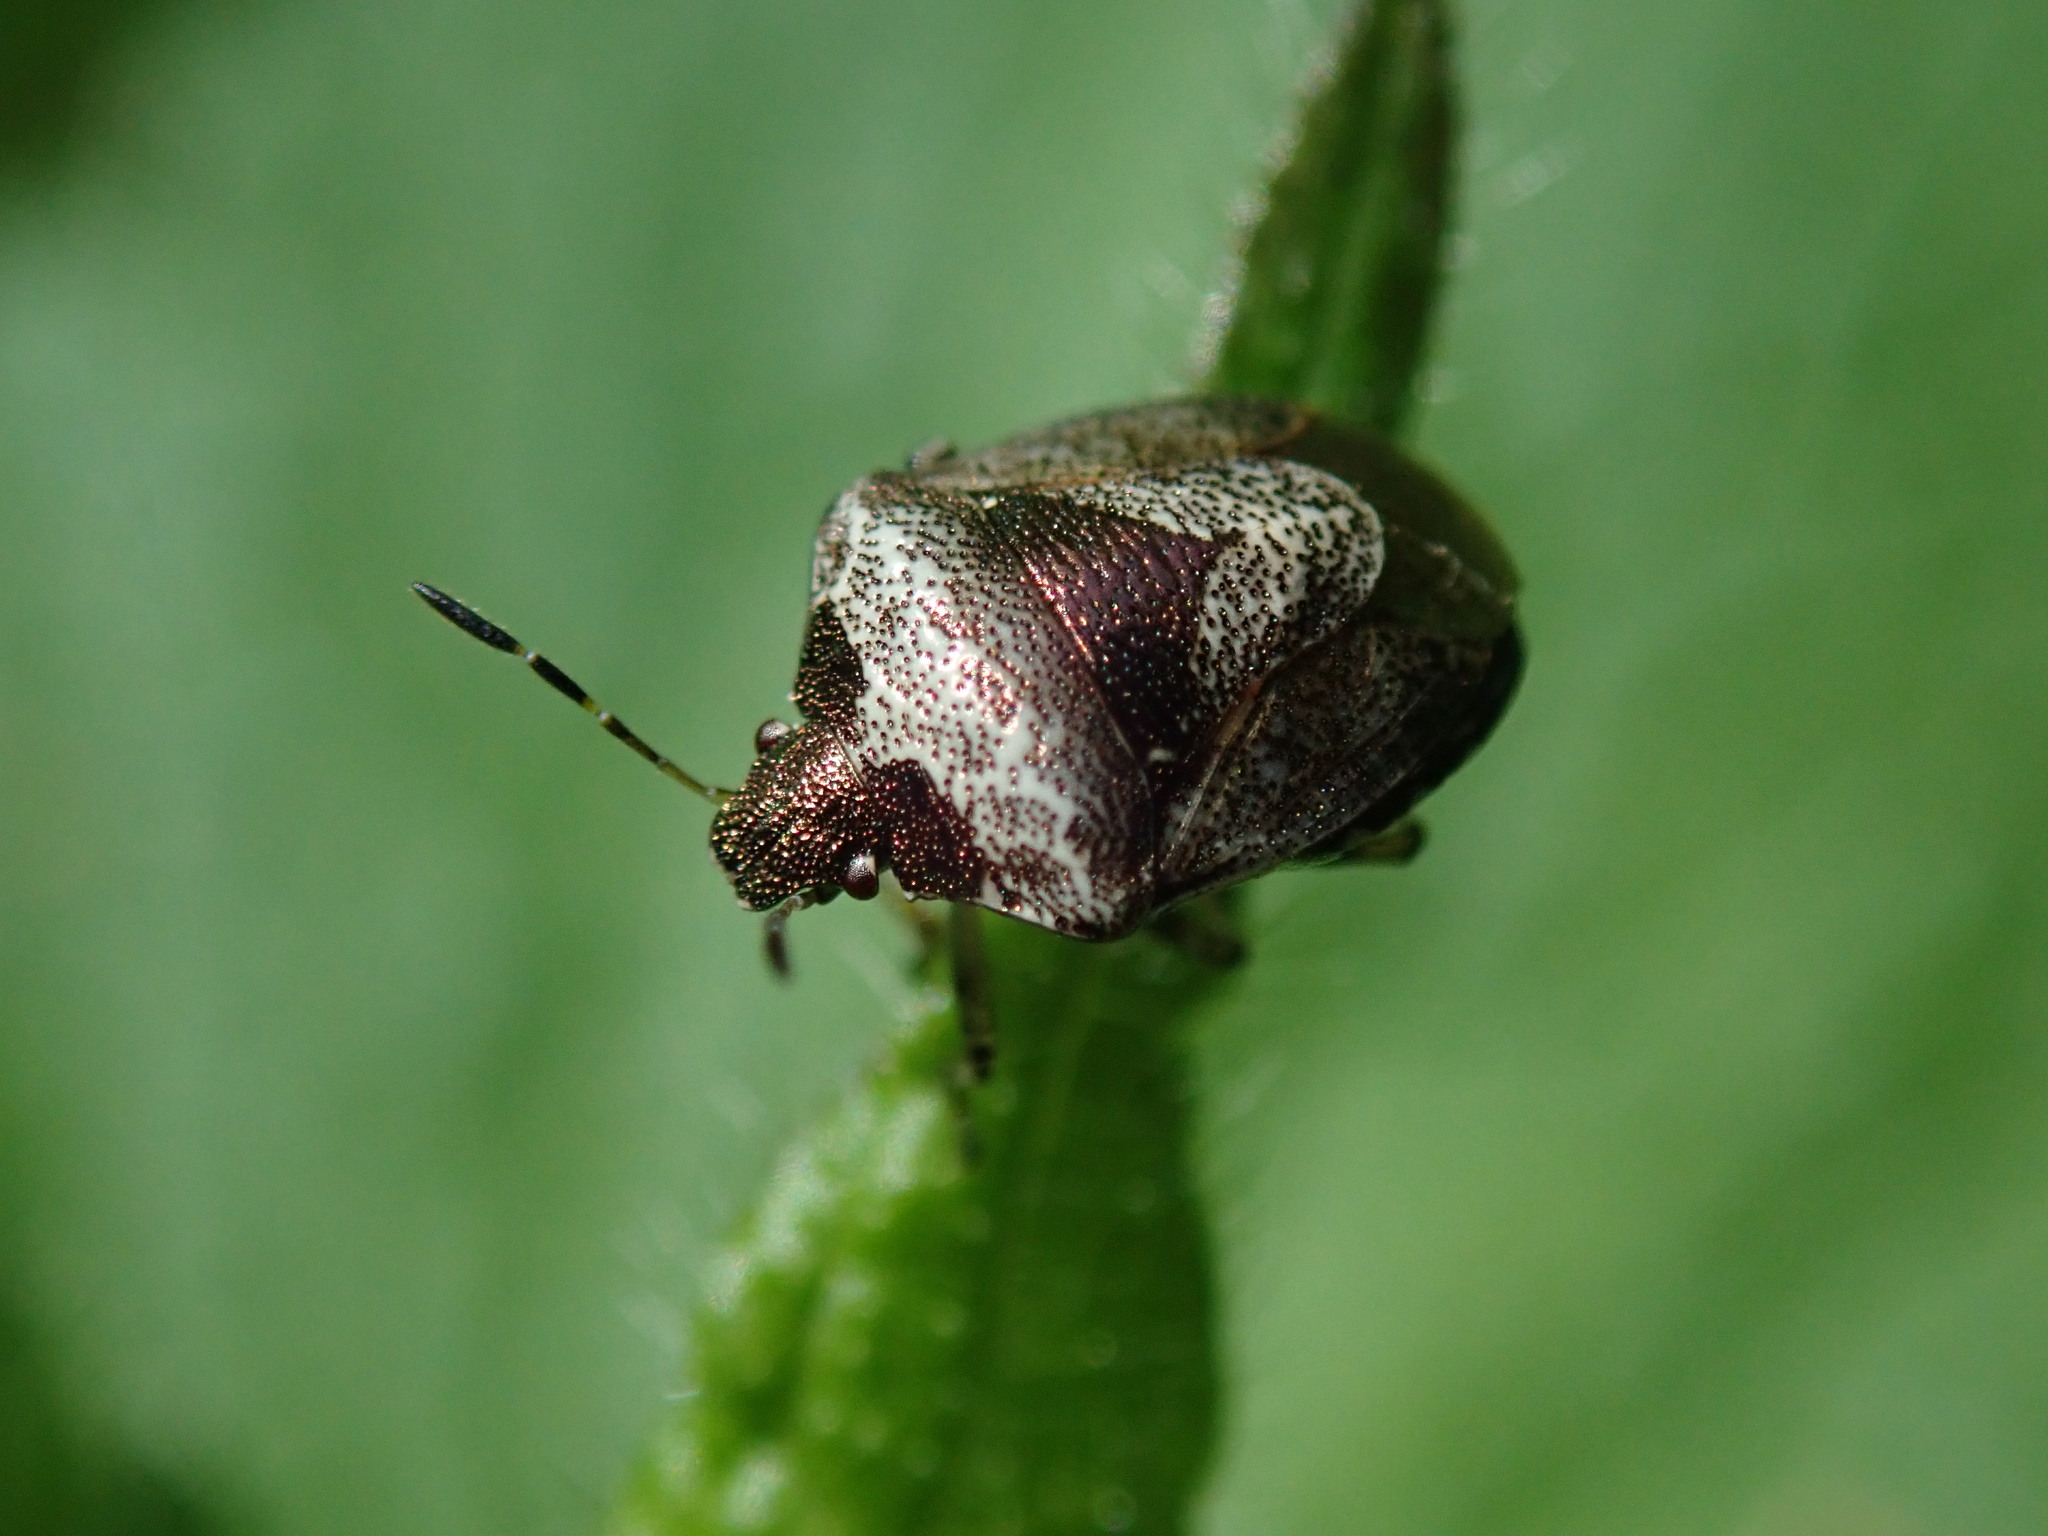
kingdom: Animalia
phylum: Arthropoda
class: Insecta
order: Hemiptera
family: Pentatomidae
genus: Eysarcoris
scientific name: Eysarcoris venustissimus
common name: Woundwort shieldbug
